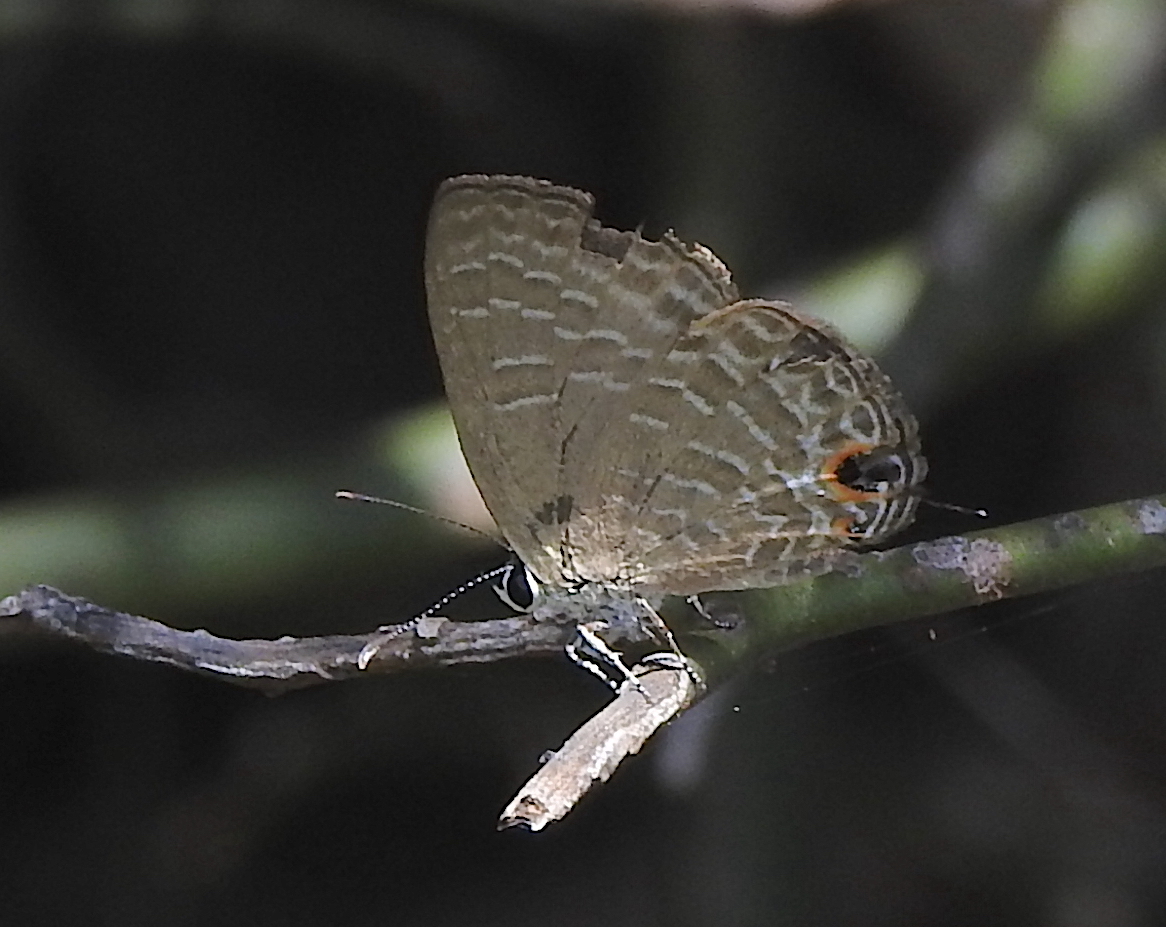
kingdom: Animalia
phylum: Arthropoda
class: Insecta
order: Lepidoptera
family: Lycaenidae
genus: Jamides
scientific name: Jamides bochus
